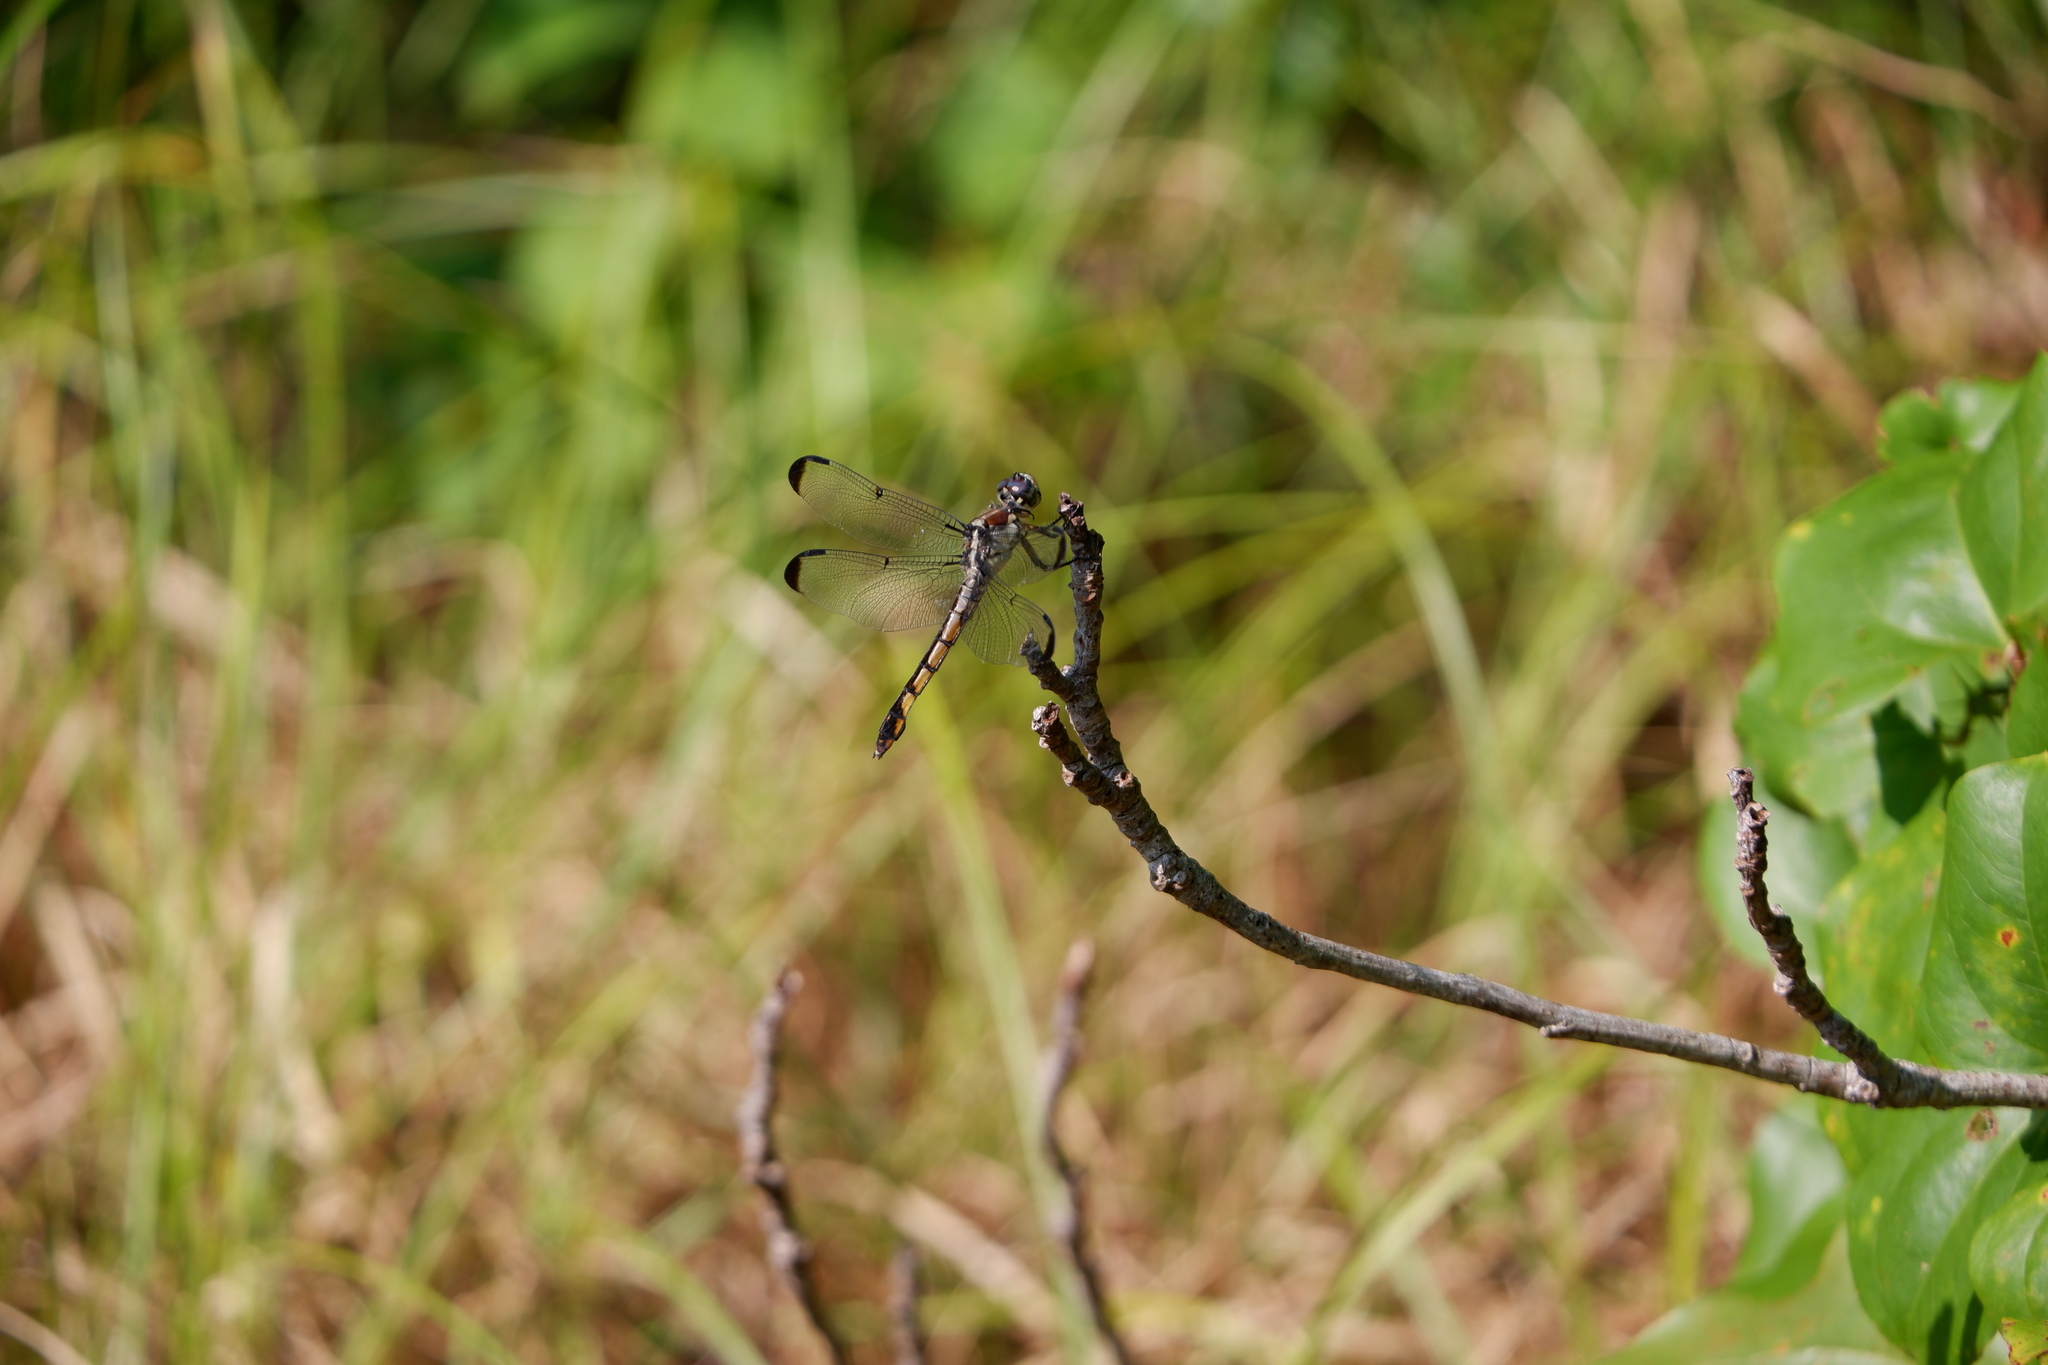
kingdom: Animalia
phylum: Arthropoda
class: Insecta
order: Odonata
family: Libellulidae
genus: Libellula
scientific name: Libellula vibrans
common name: Great blue skimmer
